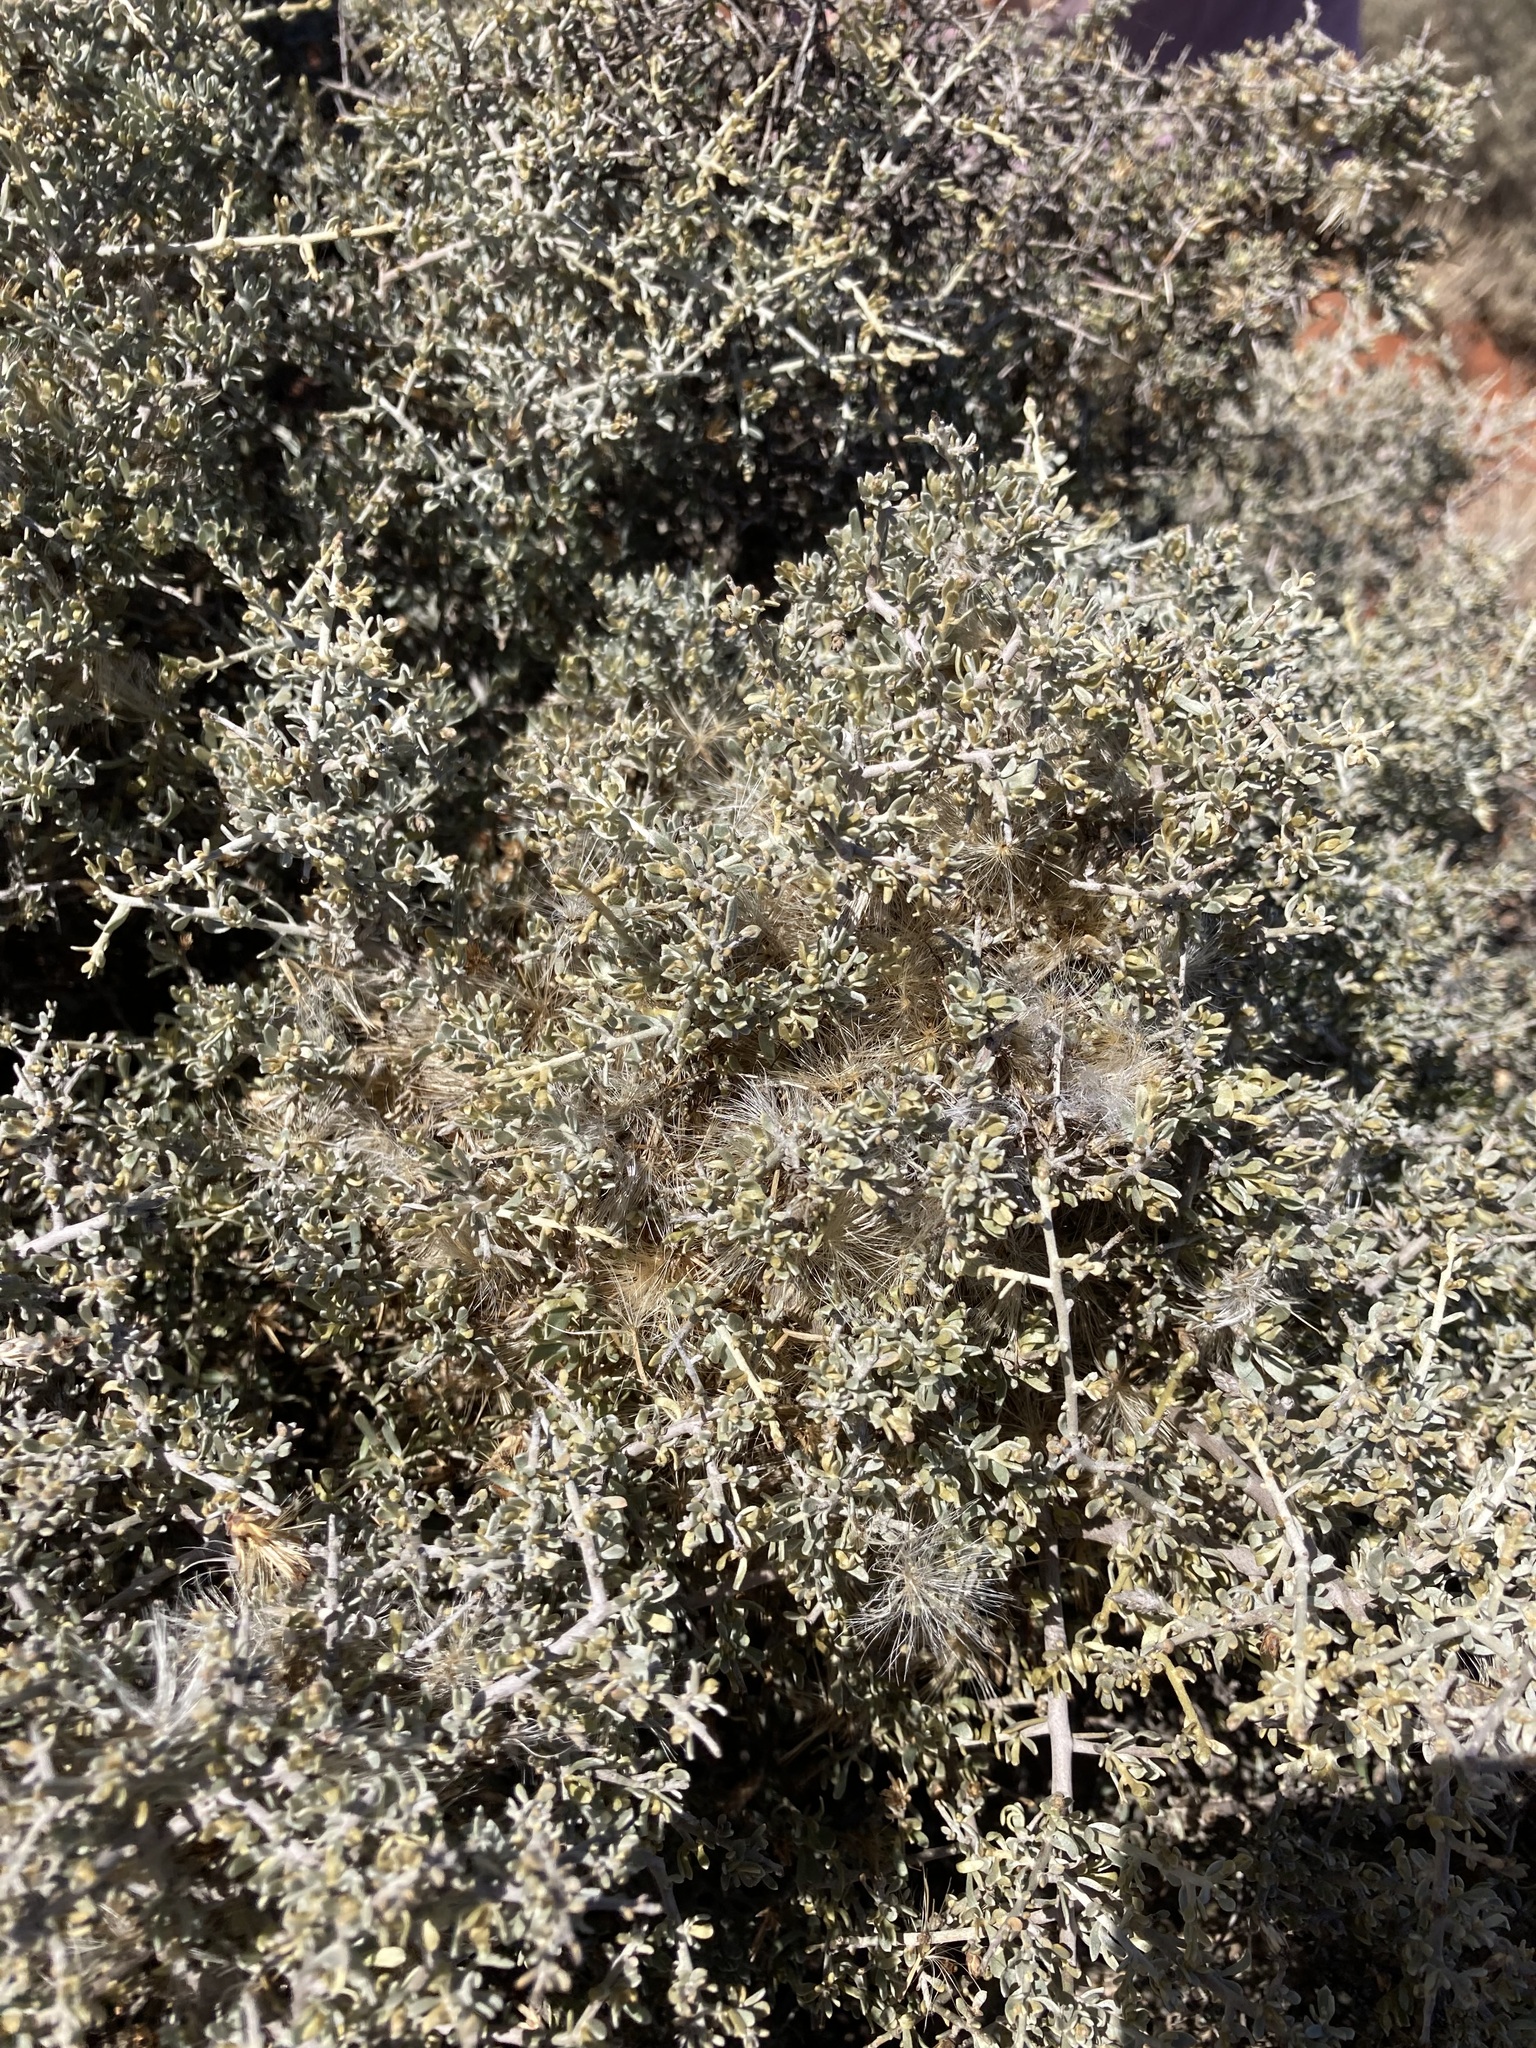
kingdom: Plantae
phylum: Tracheophyta
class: Magnoliopsida
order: Asterales
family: Asteraceae
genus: Cratystylis
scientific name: Cratystylis subspinescens
